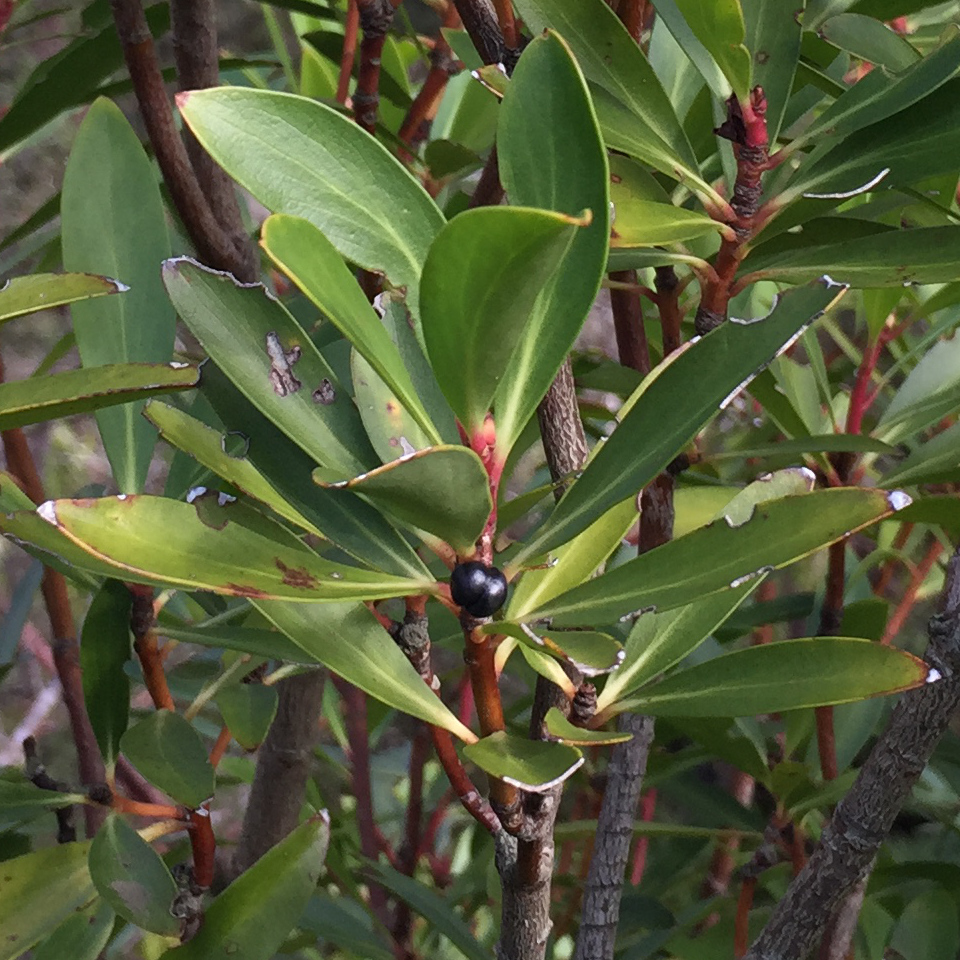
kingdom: Plantae
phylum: Tracheophyta
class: Magnoliopsida
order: Canellales
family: Winteraceae
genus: Drimys
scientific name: Drimys aromatica
